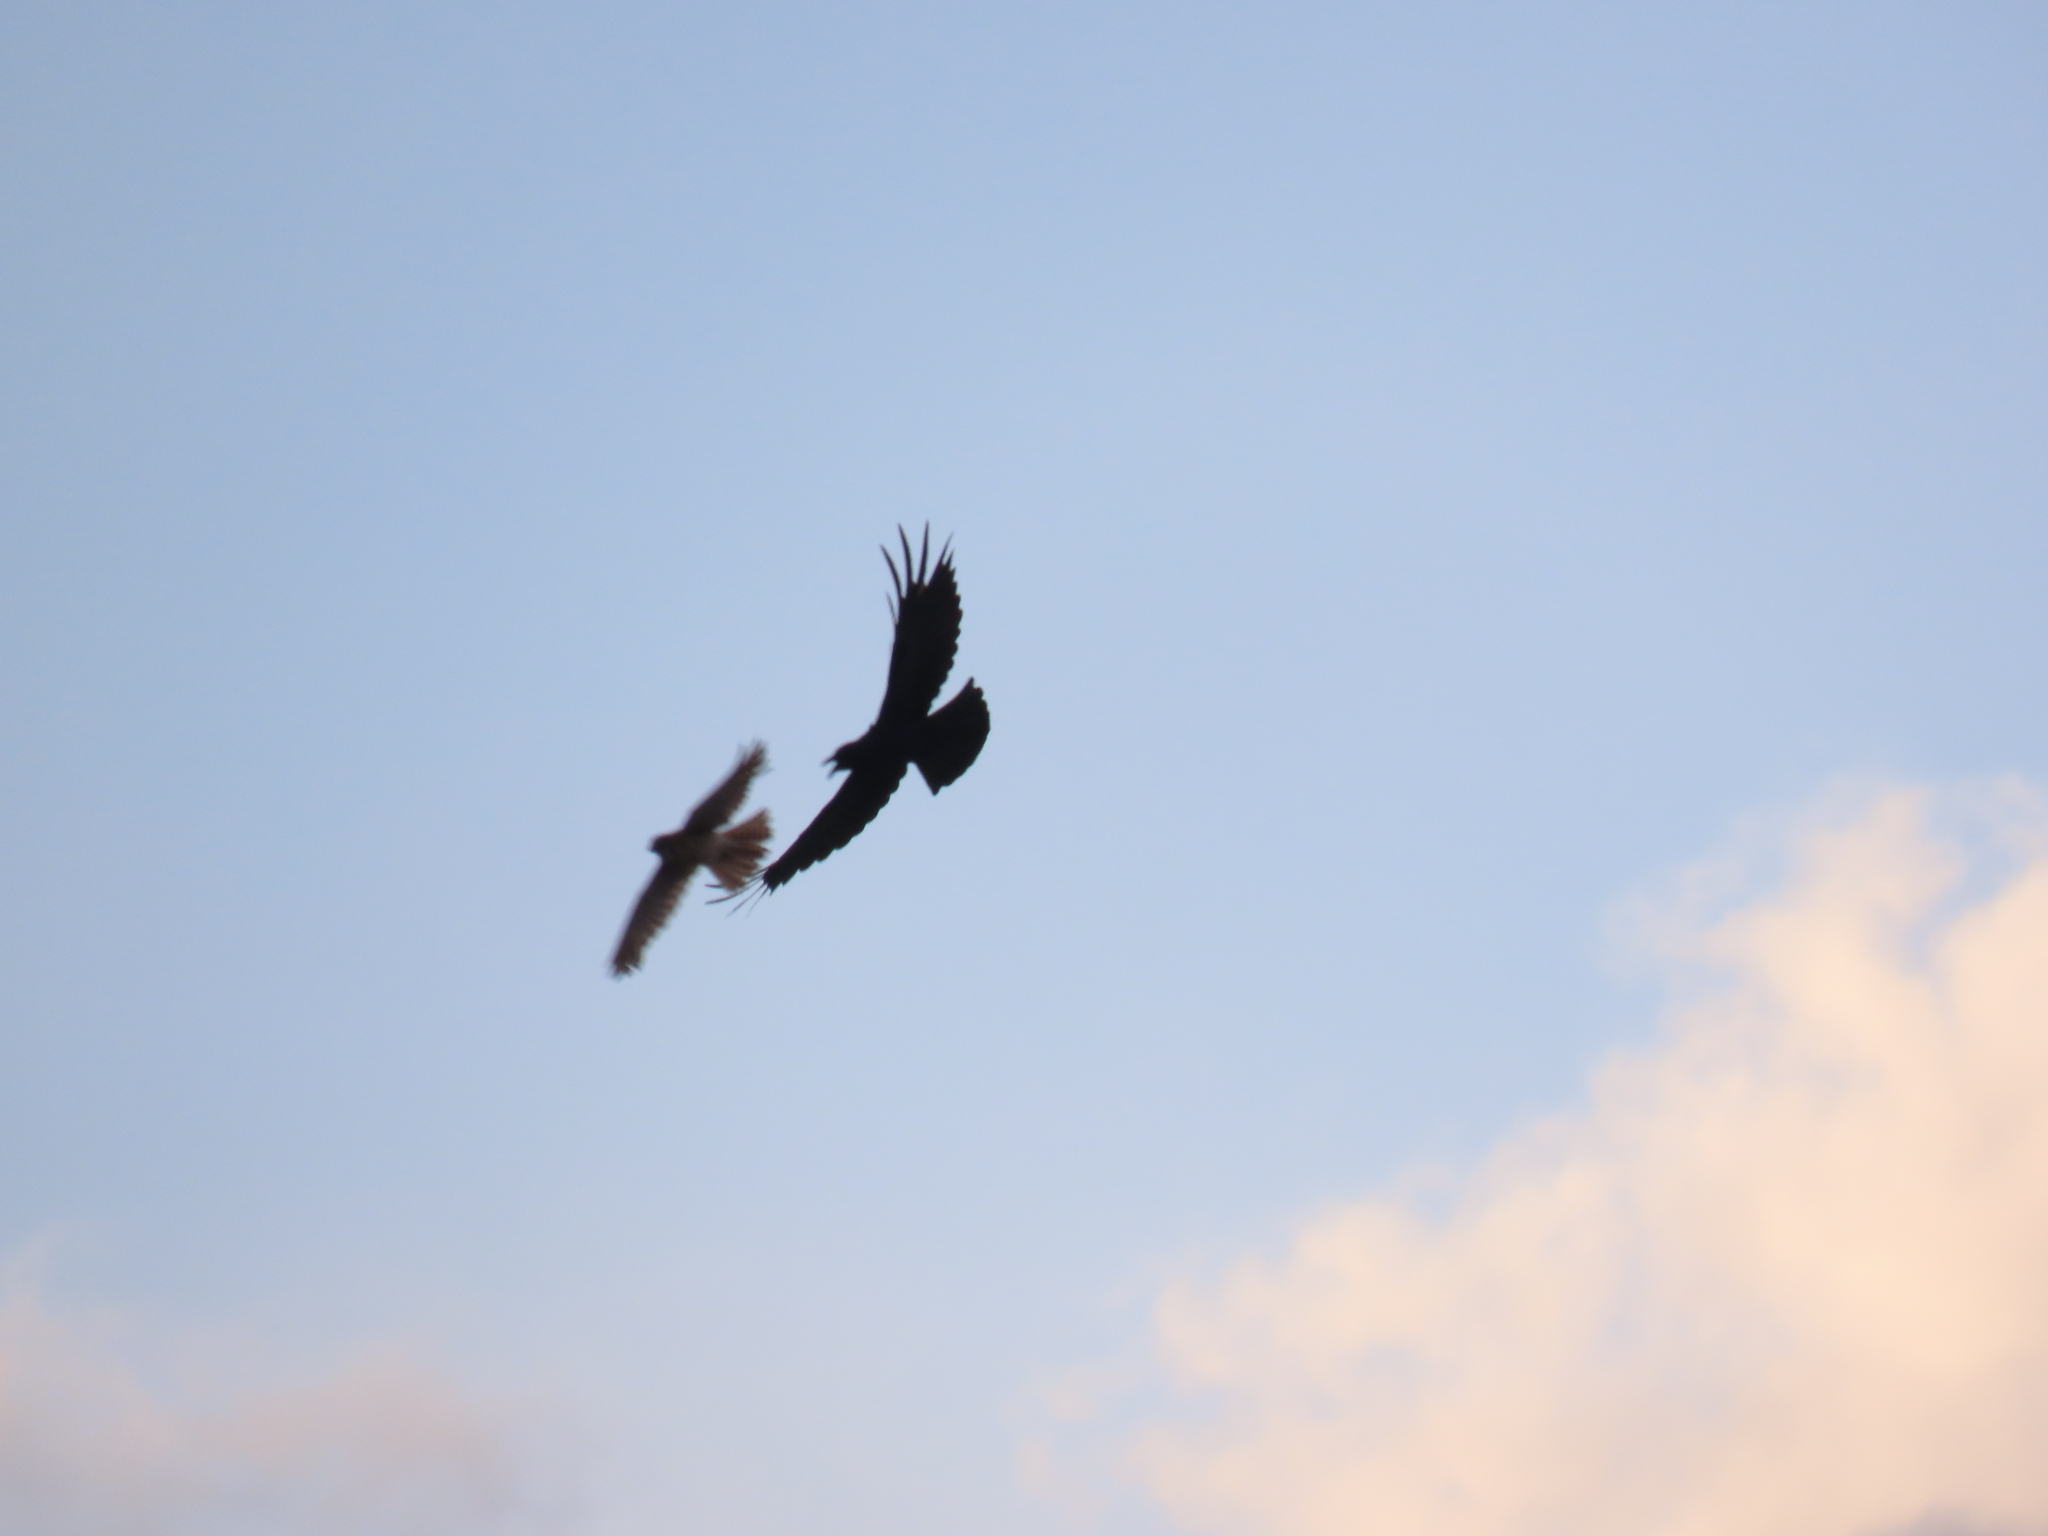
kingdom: Animalia
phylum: Chordata
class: Aves
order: Falconiformes
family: Falconidae
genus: Falco
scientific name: Falco sparverius
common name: American kestrel
